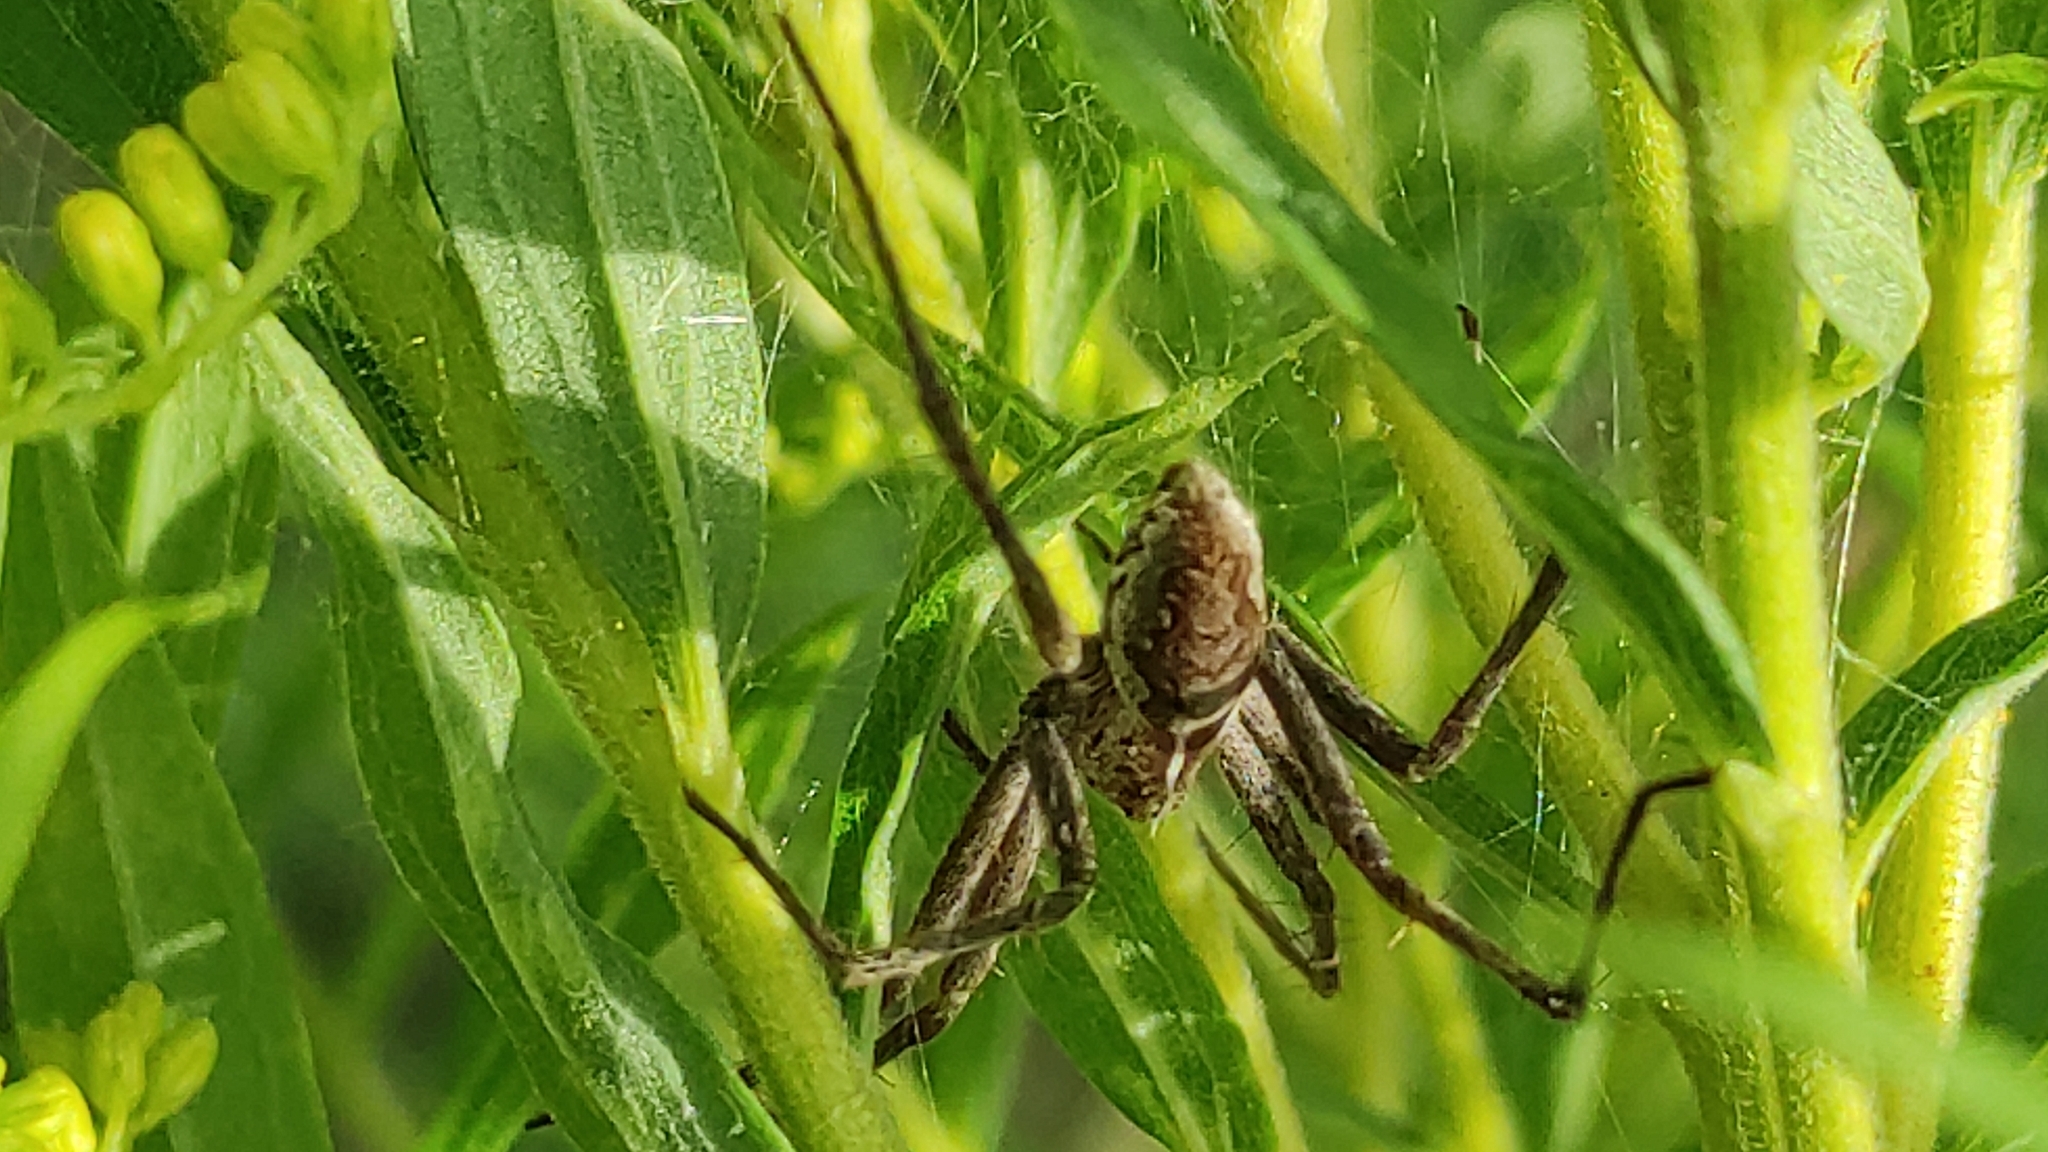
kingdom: Animalia
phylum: Arthropoda
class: Arachnida
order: Araneae
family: Pisauridae
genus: Pisaura
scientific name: Pisaura mirabilis
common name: Tent spider
